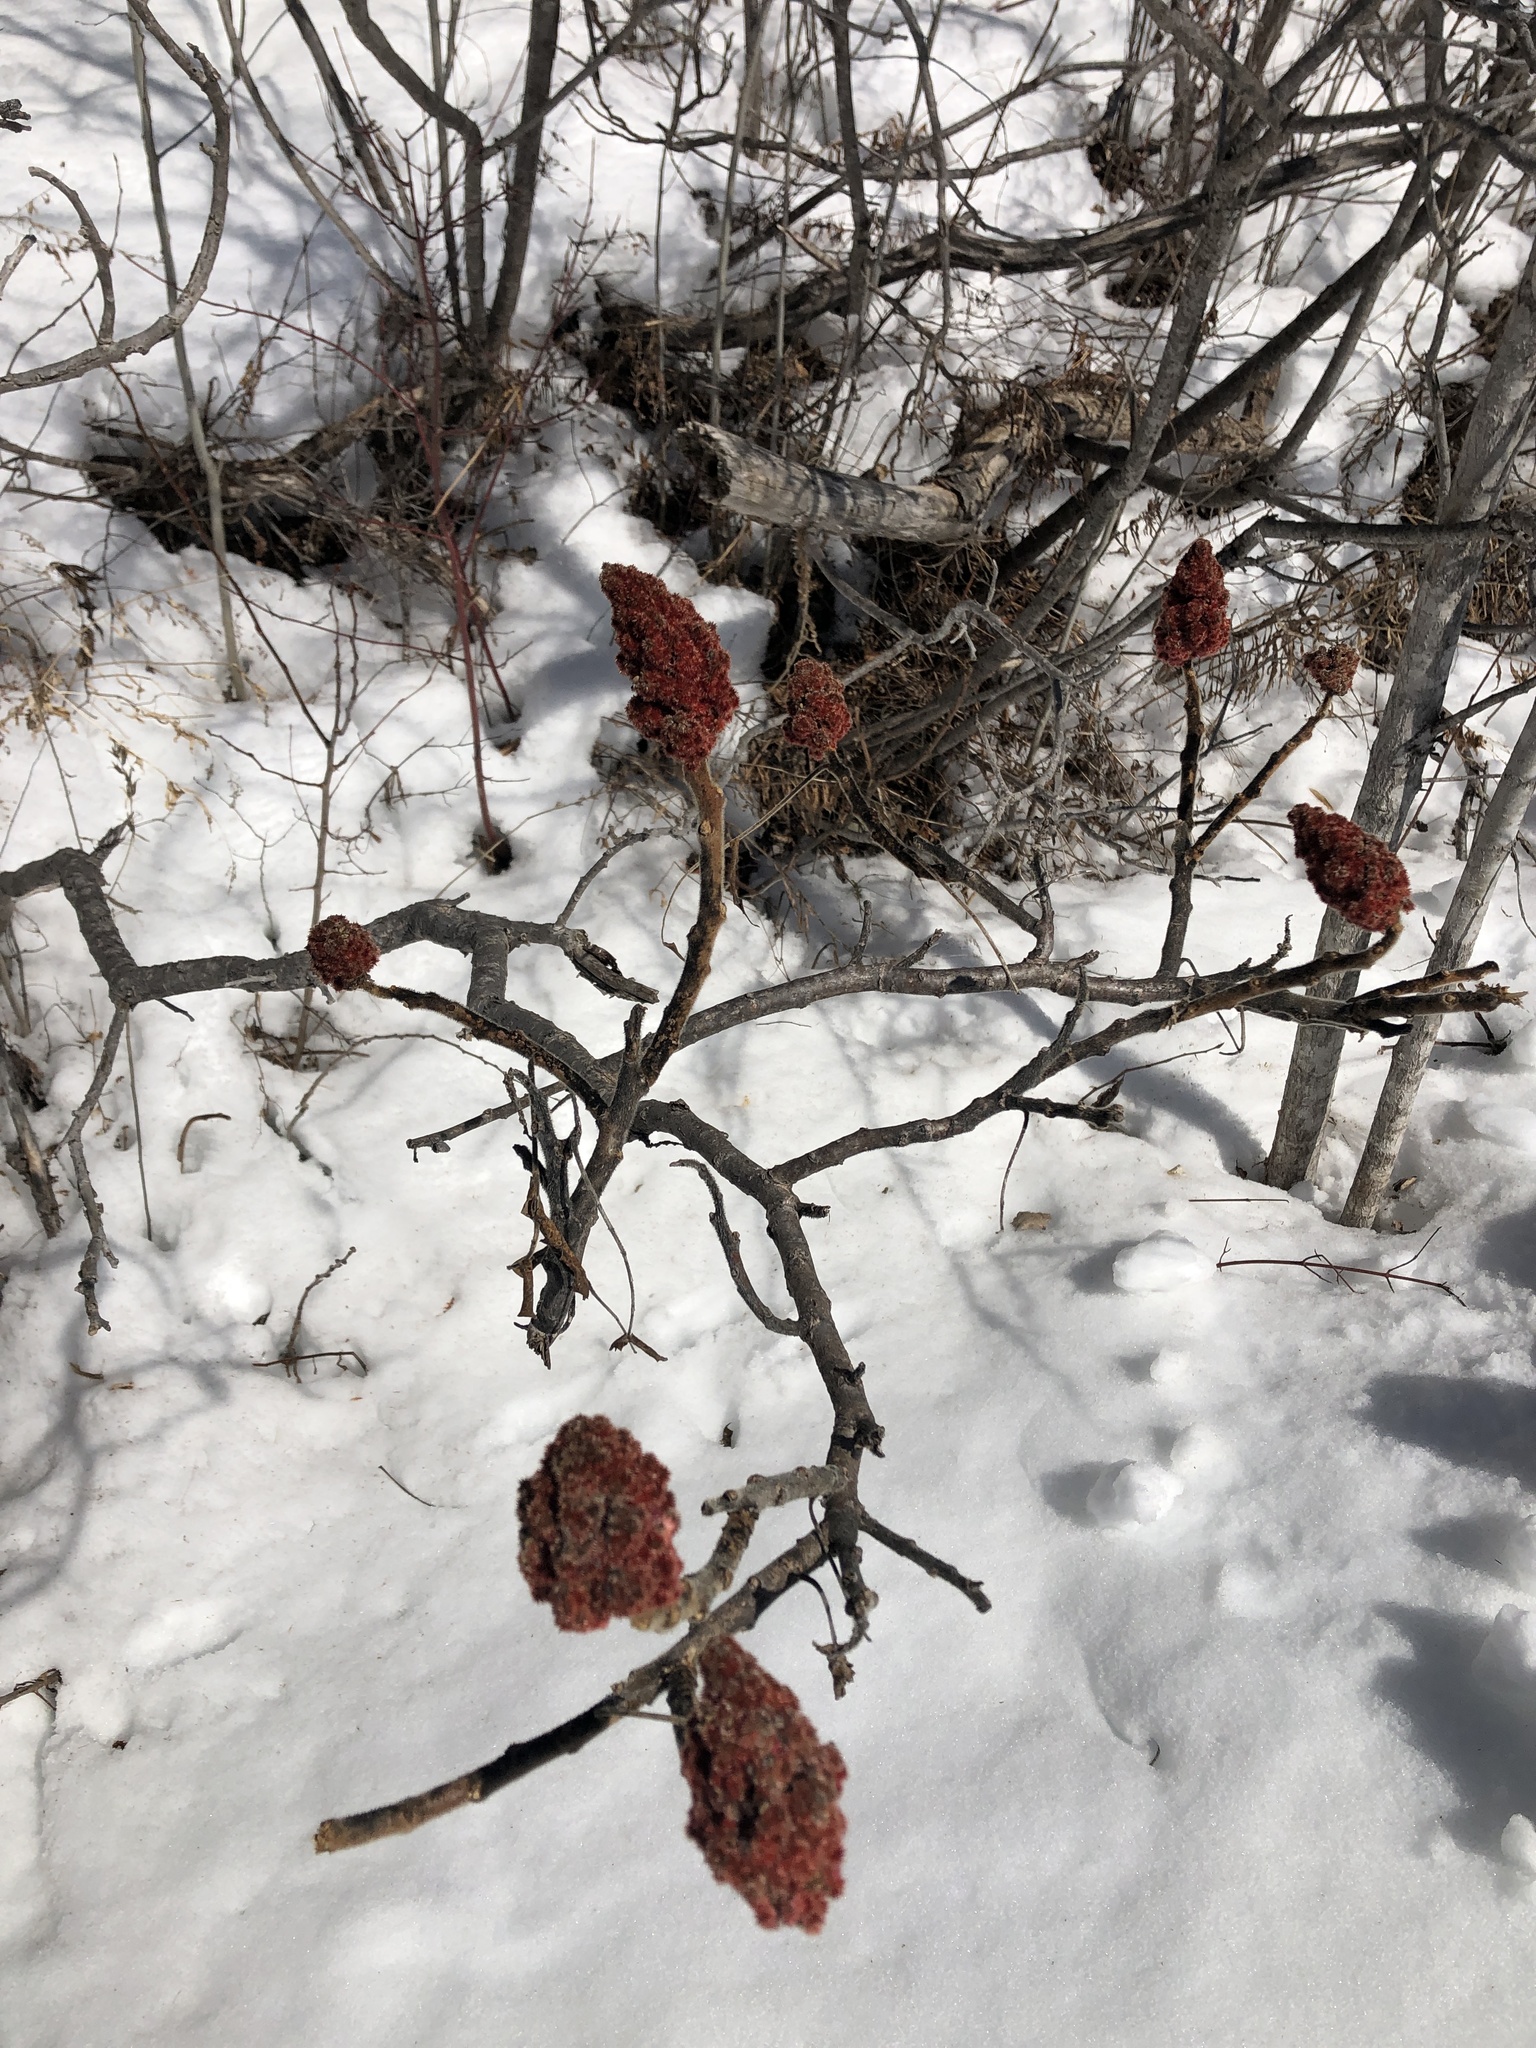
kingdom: Plantae
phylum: Tracheophyta
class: Magnoliopsida
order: Sapindales
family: Anacardiaceae
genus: Rhus
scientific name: Rhus typhina
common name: Staghorn sumac
